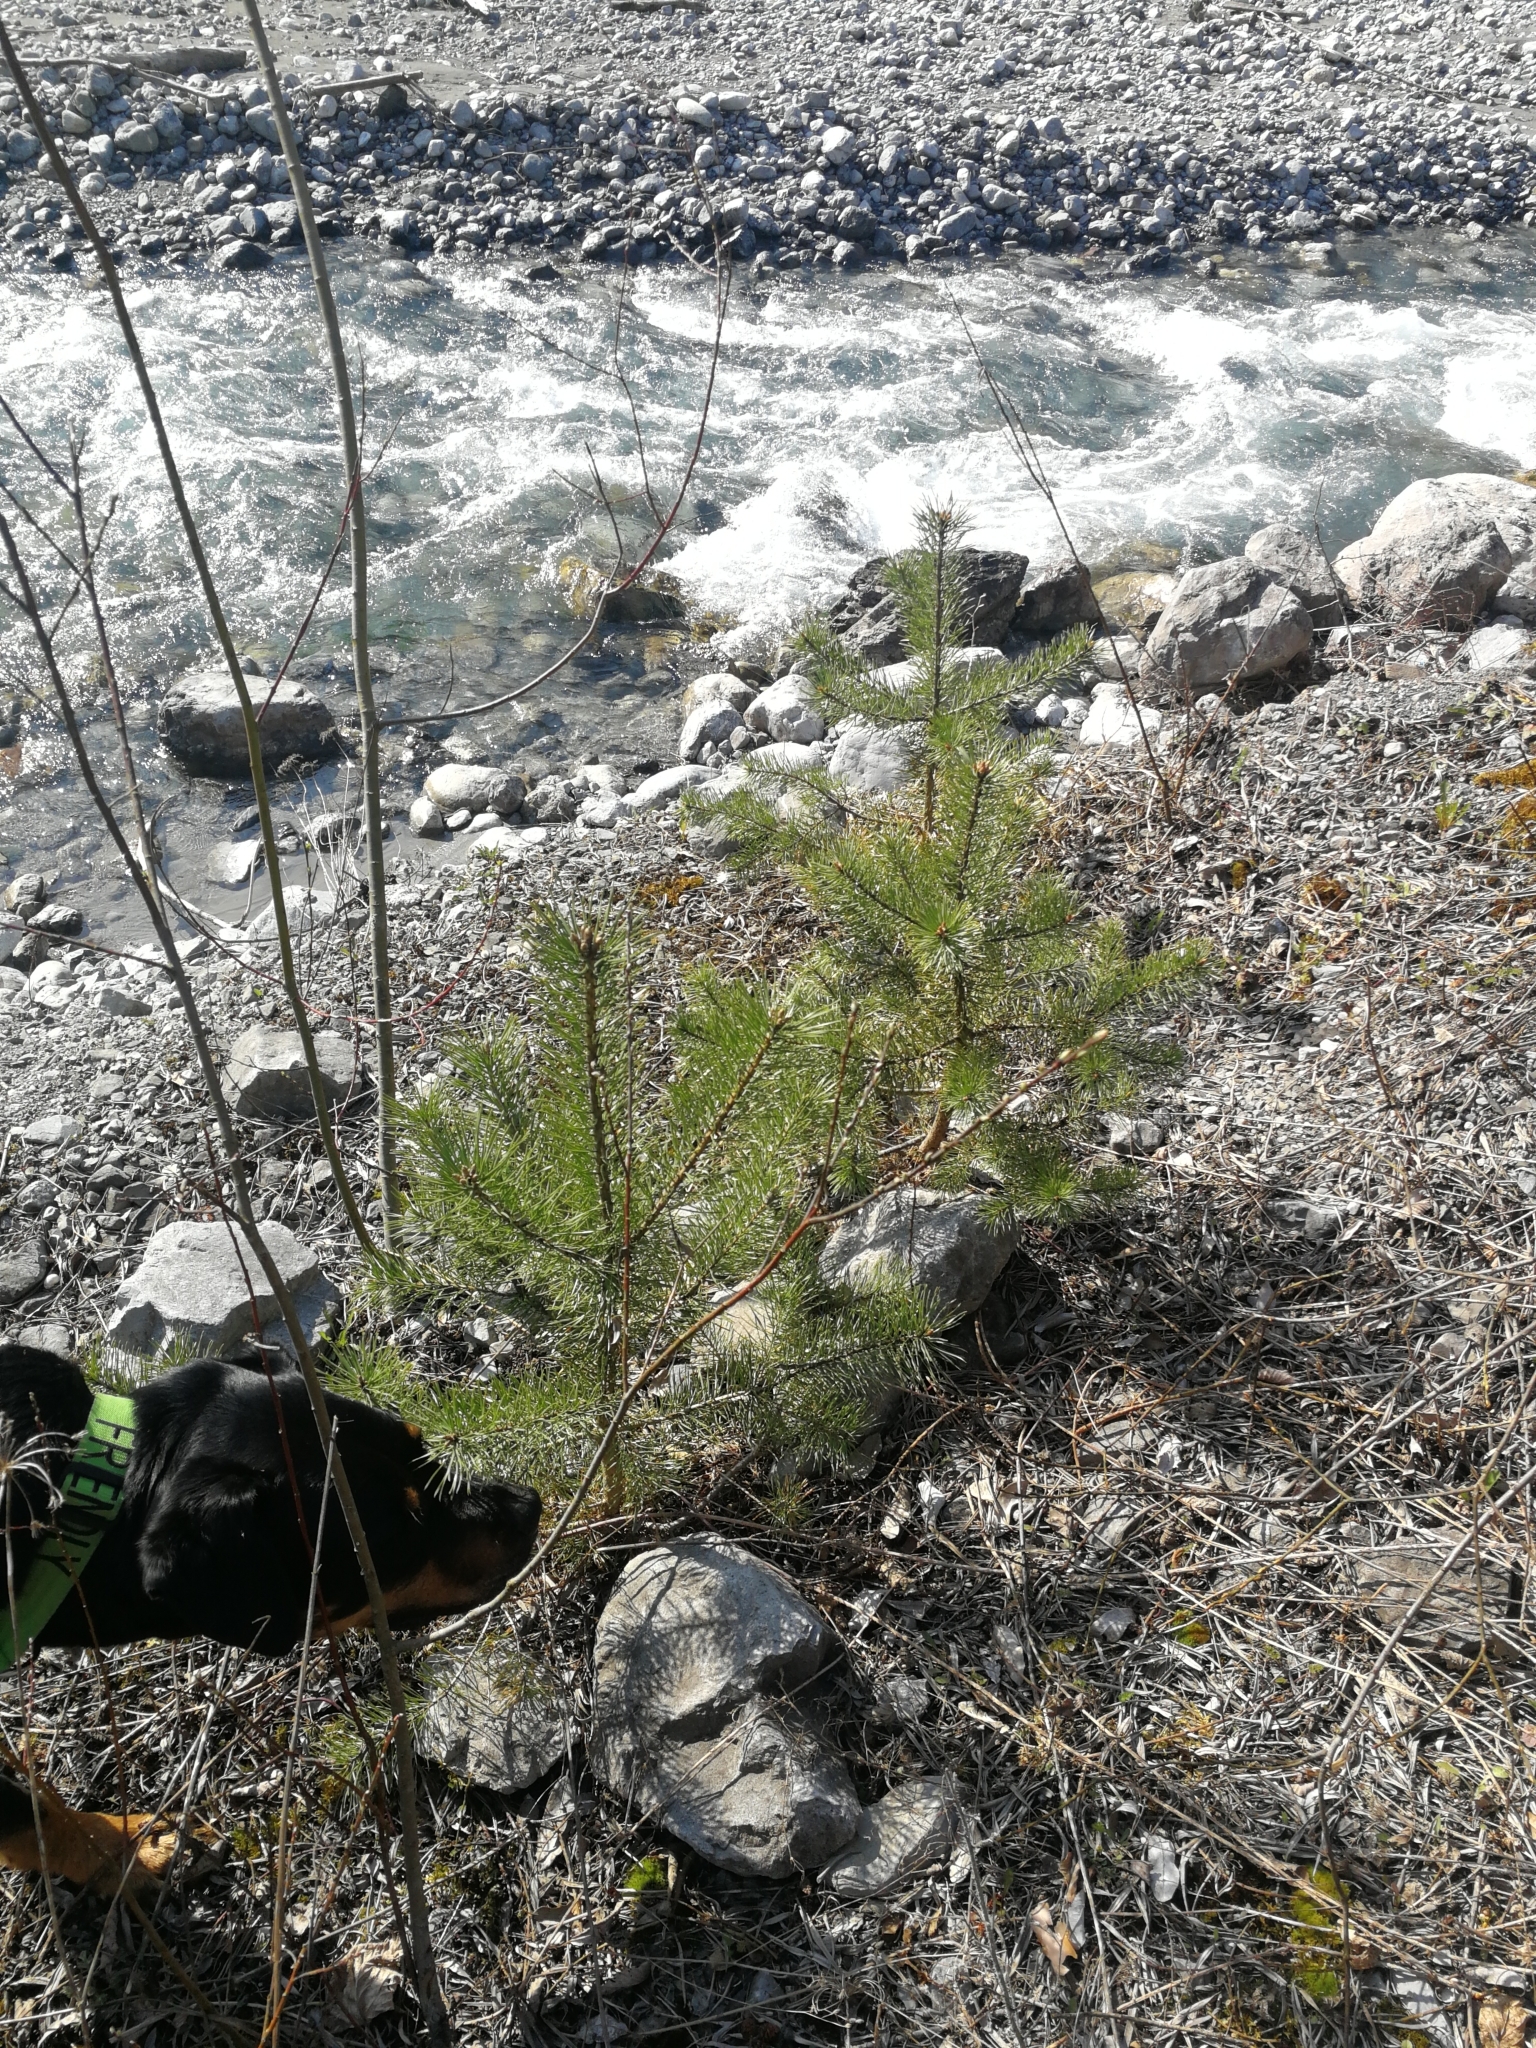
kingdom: Plantae
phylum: Tracheophyta
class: Pinopsida
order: Pinales
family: Pinaceae
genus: Pinus
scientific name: Pinus sylvestris
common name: Scots pine
